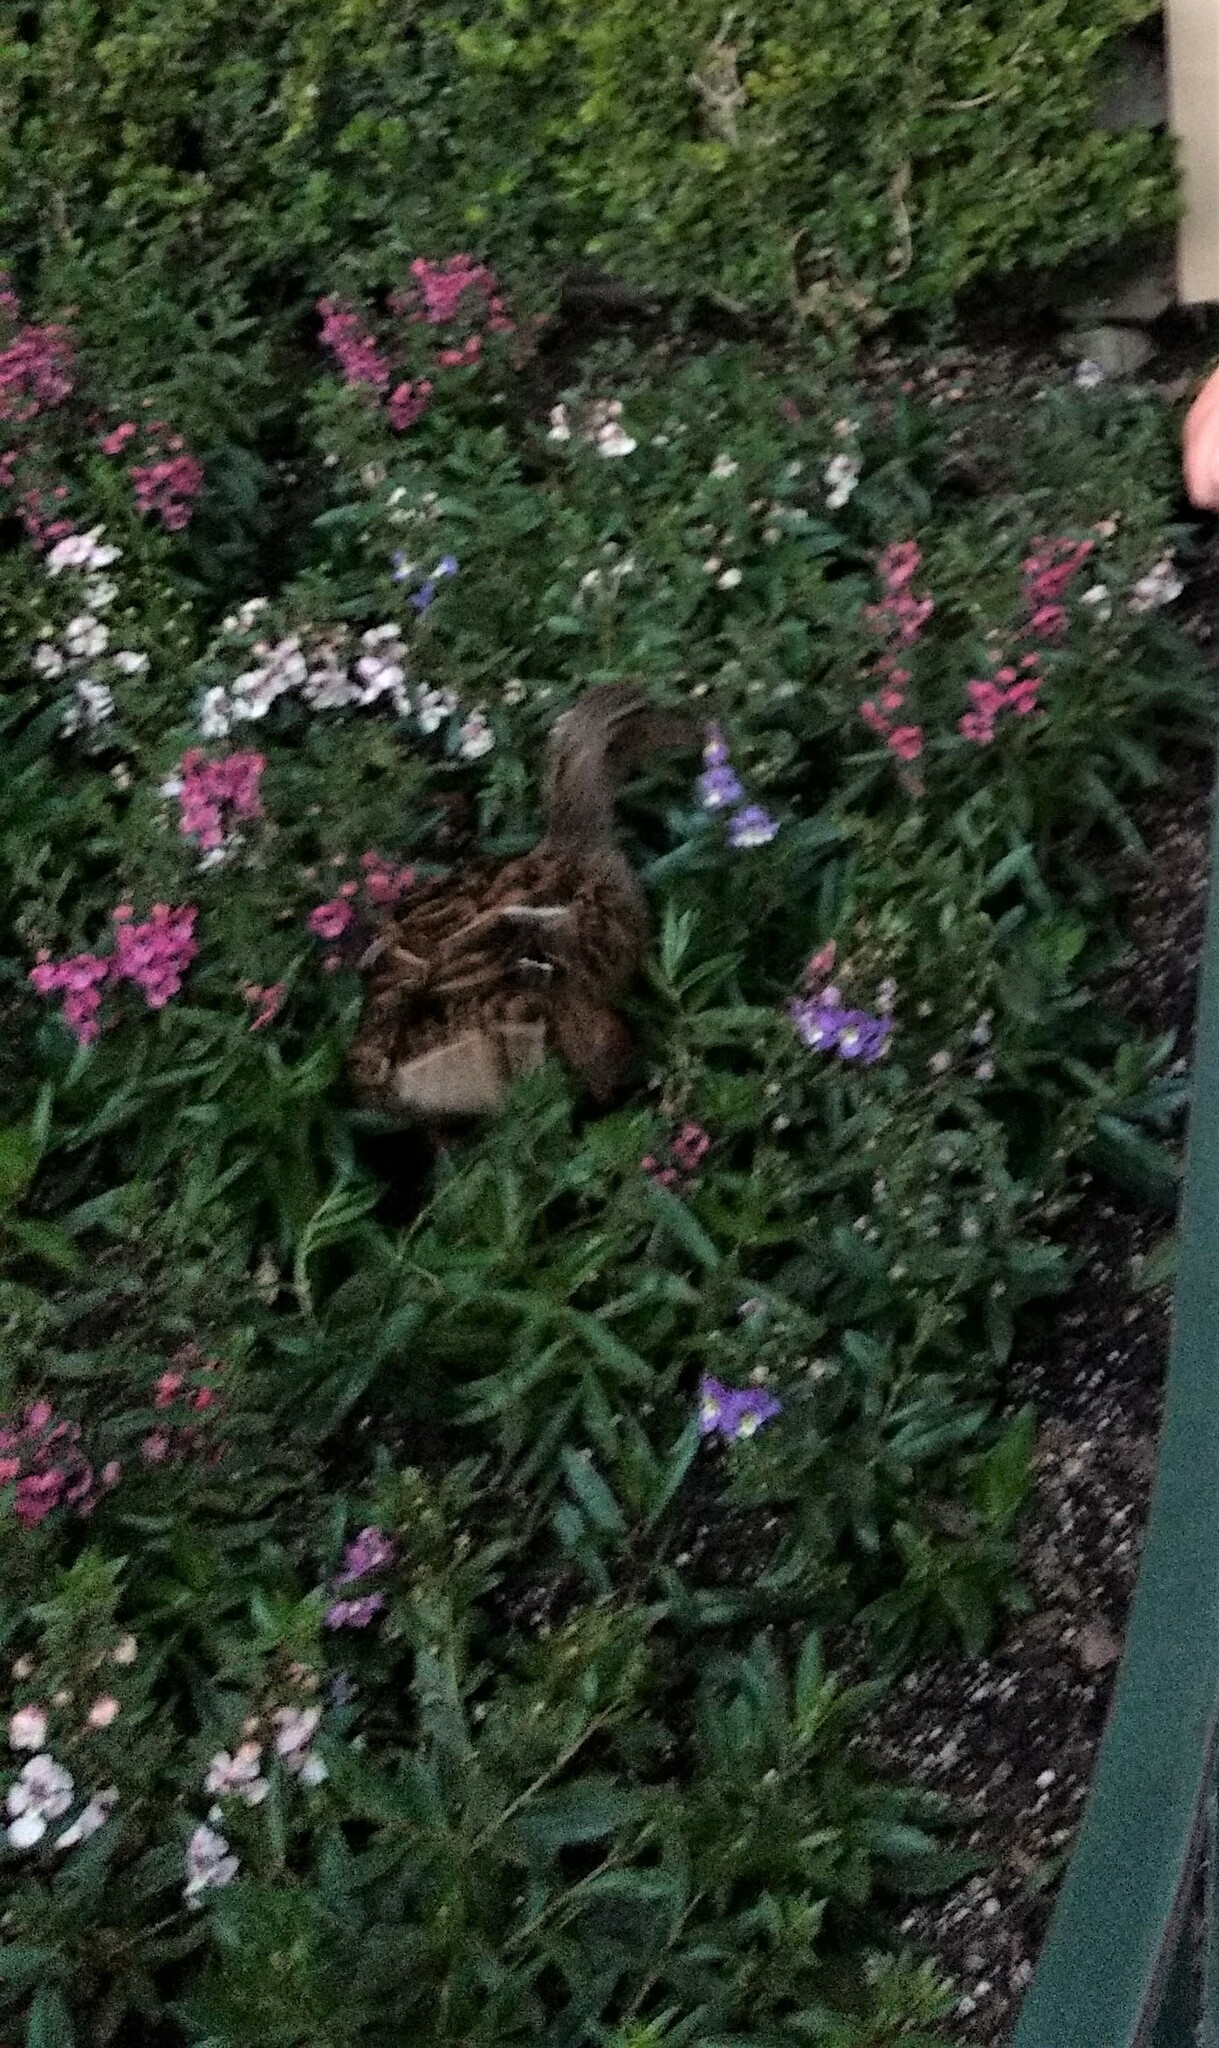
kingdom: Animalia
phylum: Chordata
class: Aves
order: Anseriformes
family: Anatidae
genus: Anas
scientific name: Anas platyrhynchos
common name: Mallard
